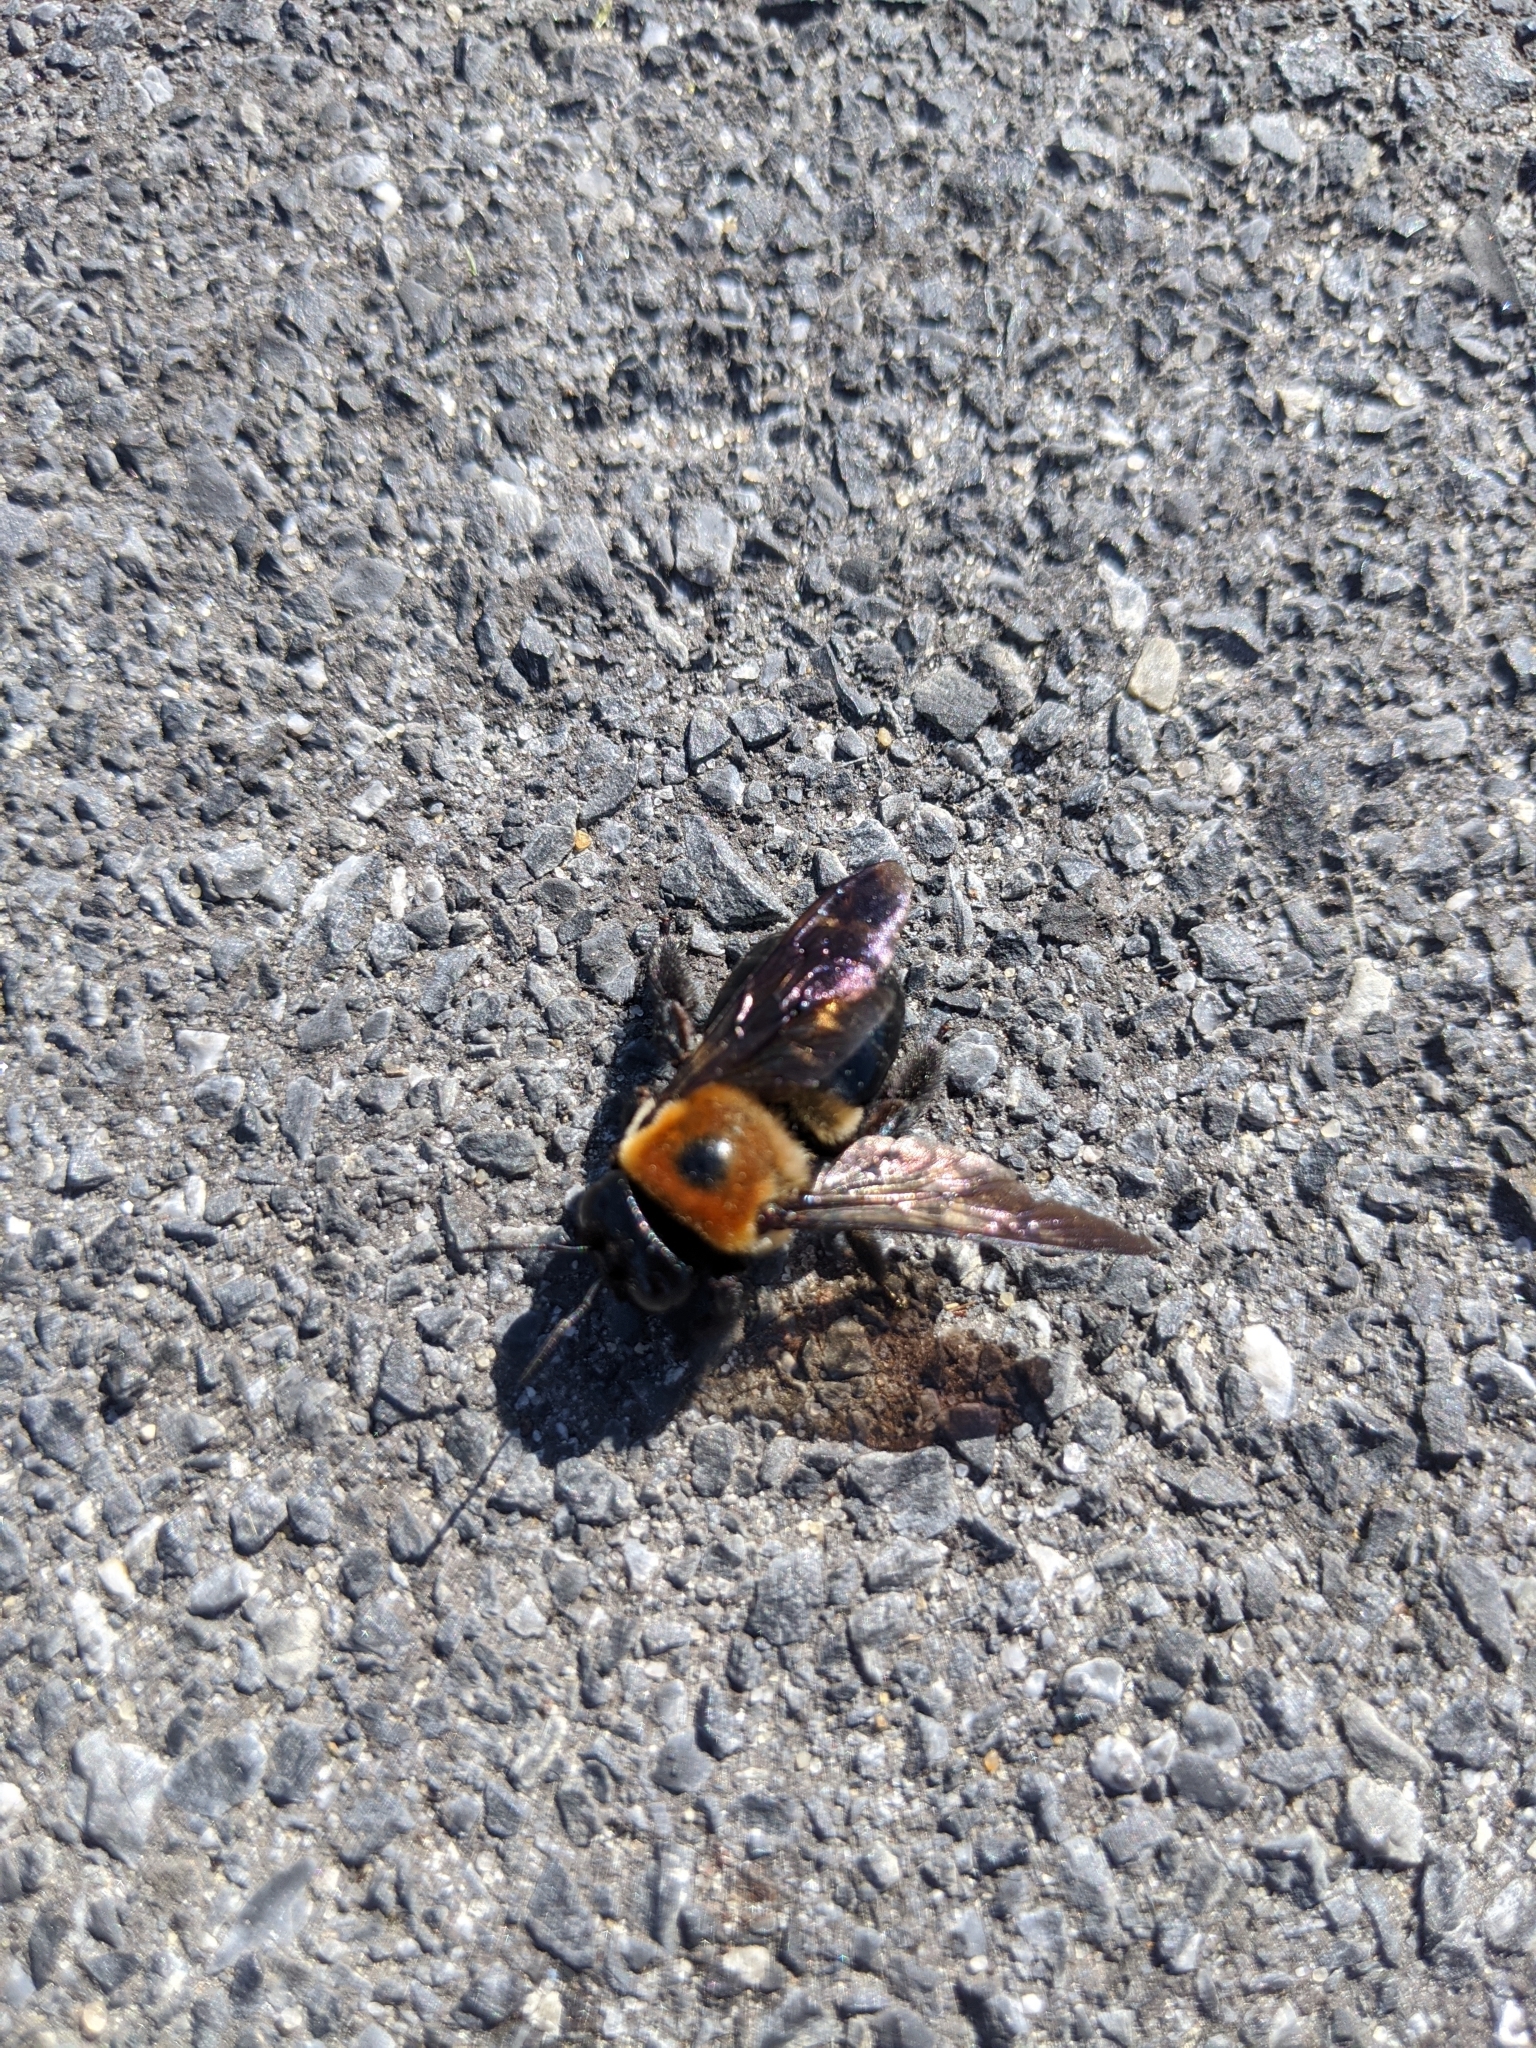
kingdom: Animalia
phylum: Arthropoda
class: Insecta
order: Hymenoptera
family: Apidae
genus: Xylocopa
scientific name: Xylocopa virginica
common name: Carpenter bee
